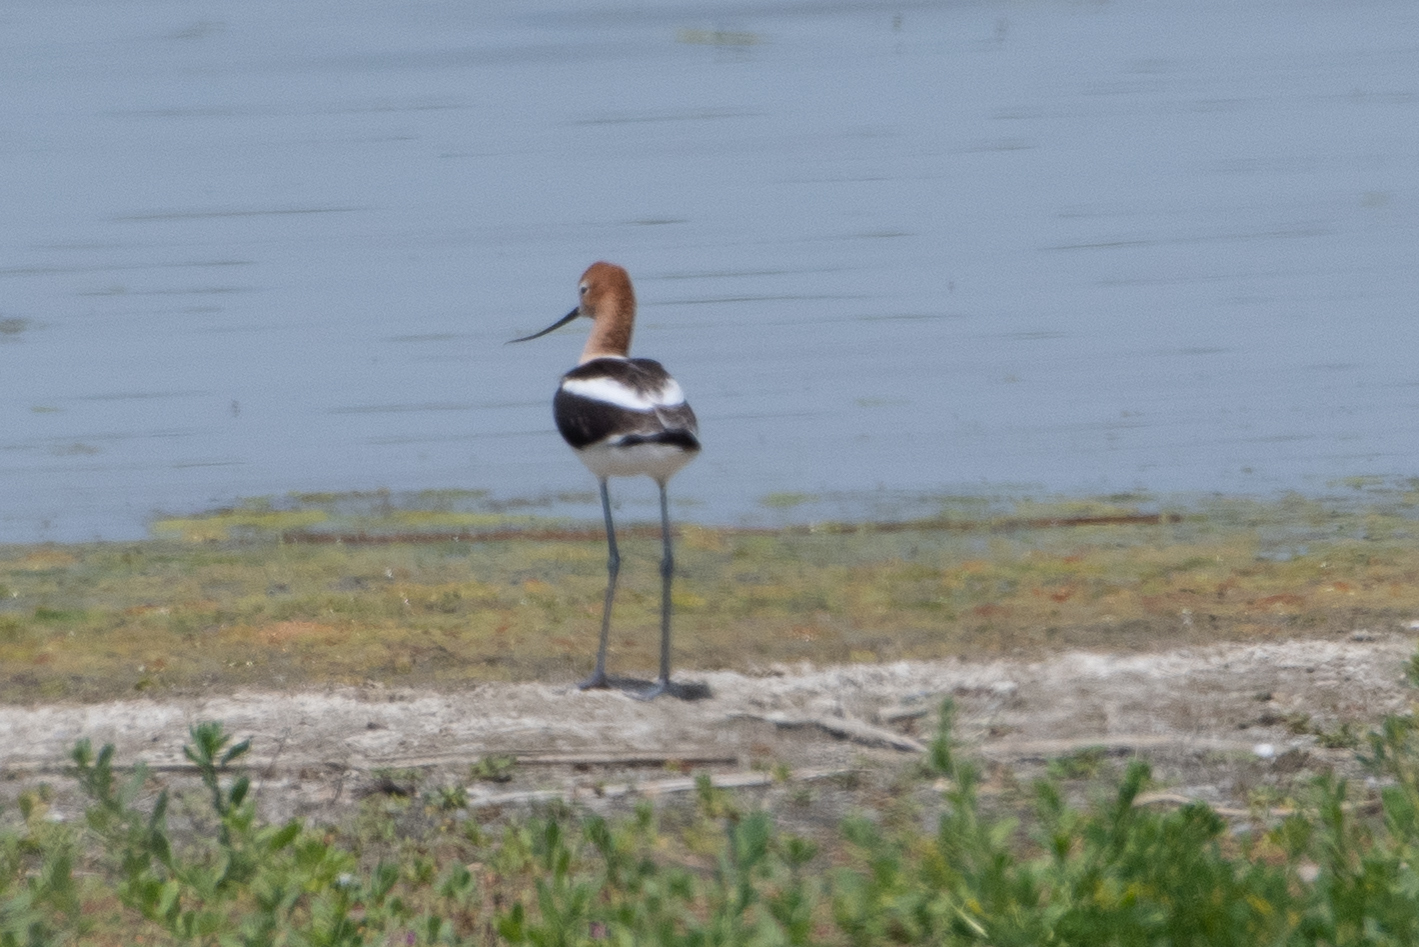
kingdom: Animalia
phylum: Chordata
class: Aves
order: Charadriiformes
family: Recurvirostridae
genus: Recurvirostra
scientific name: Recurvirostra americana
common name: American avocet
